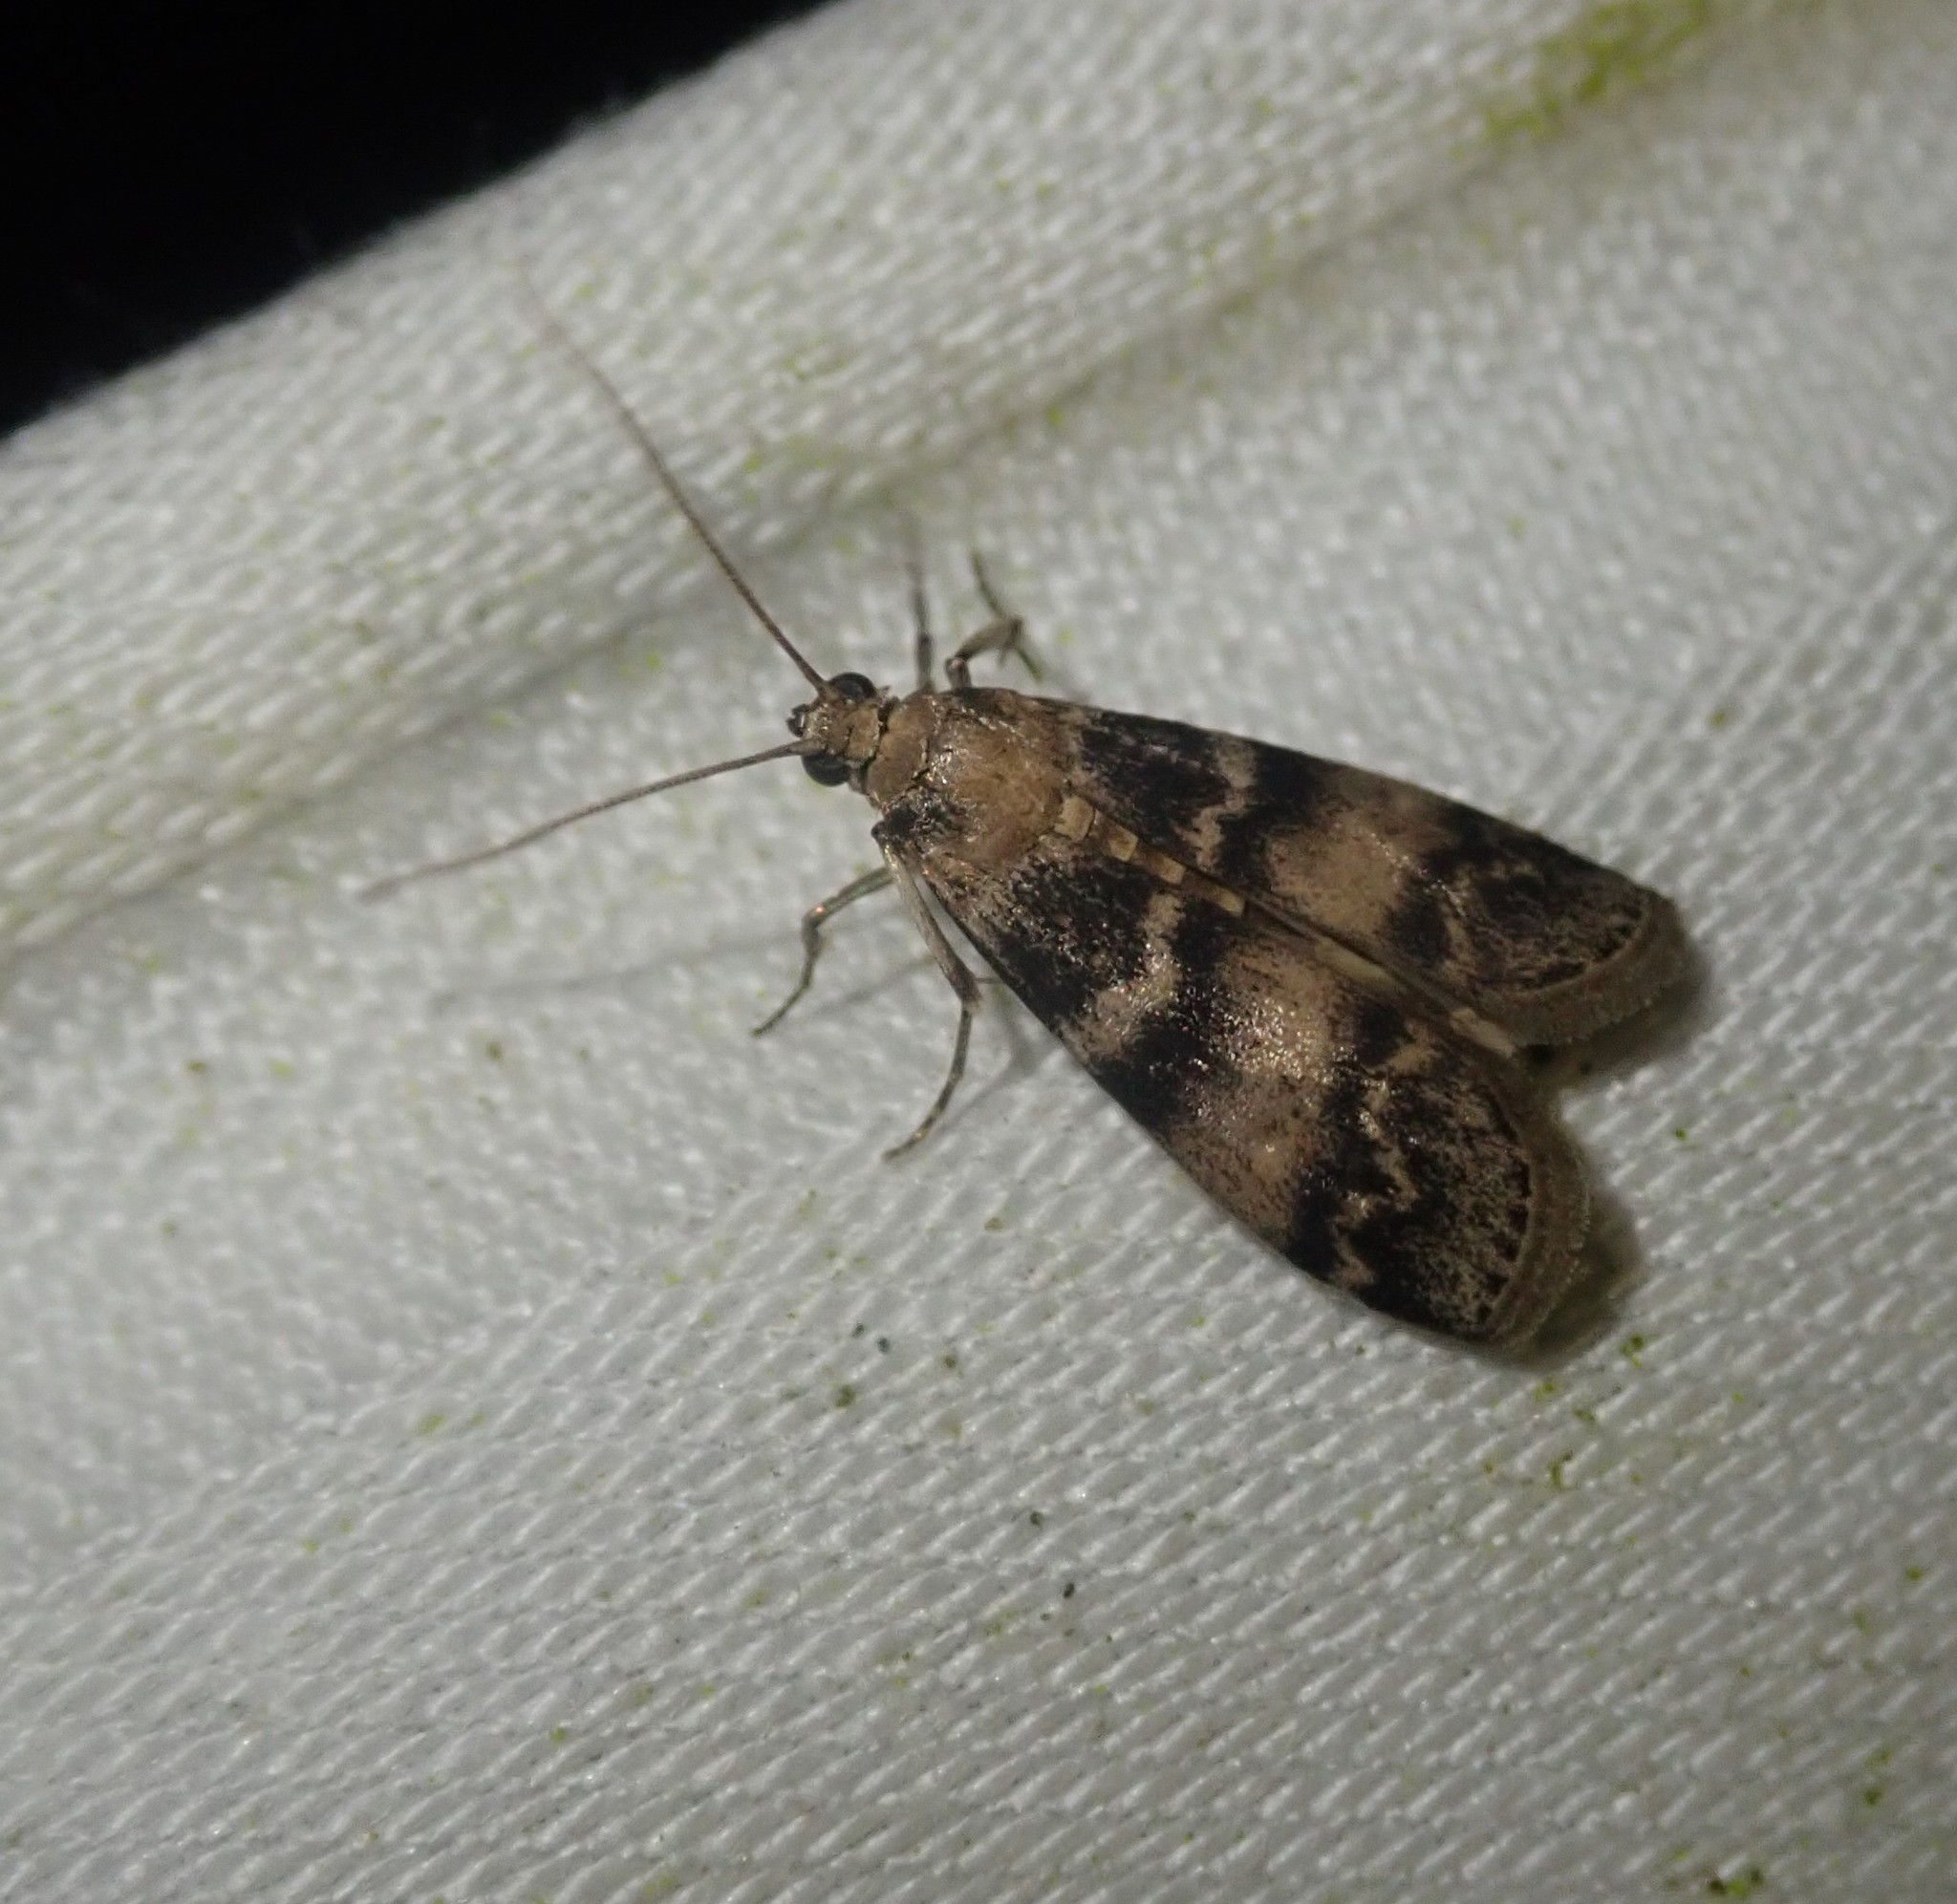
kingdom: Animalia
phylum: Arthropoda
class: Insecta
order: Lepidoptera
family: Pyralidae
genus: Euzophera
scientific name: Euzophera pinguis
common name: Ash-bark knot-horn
